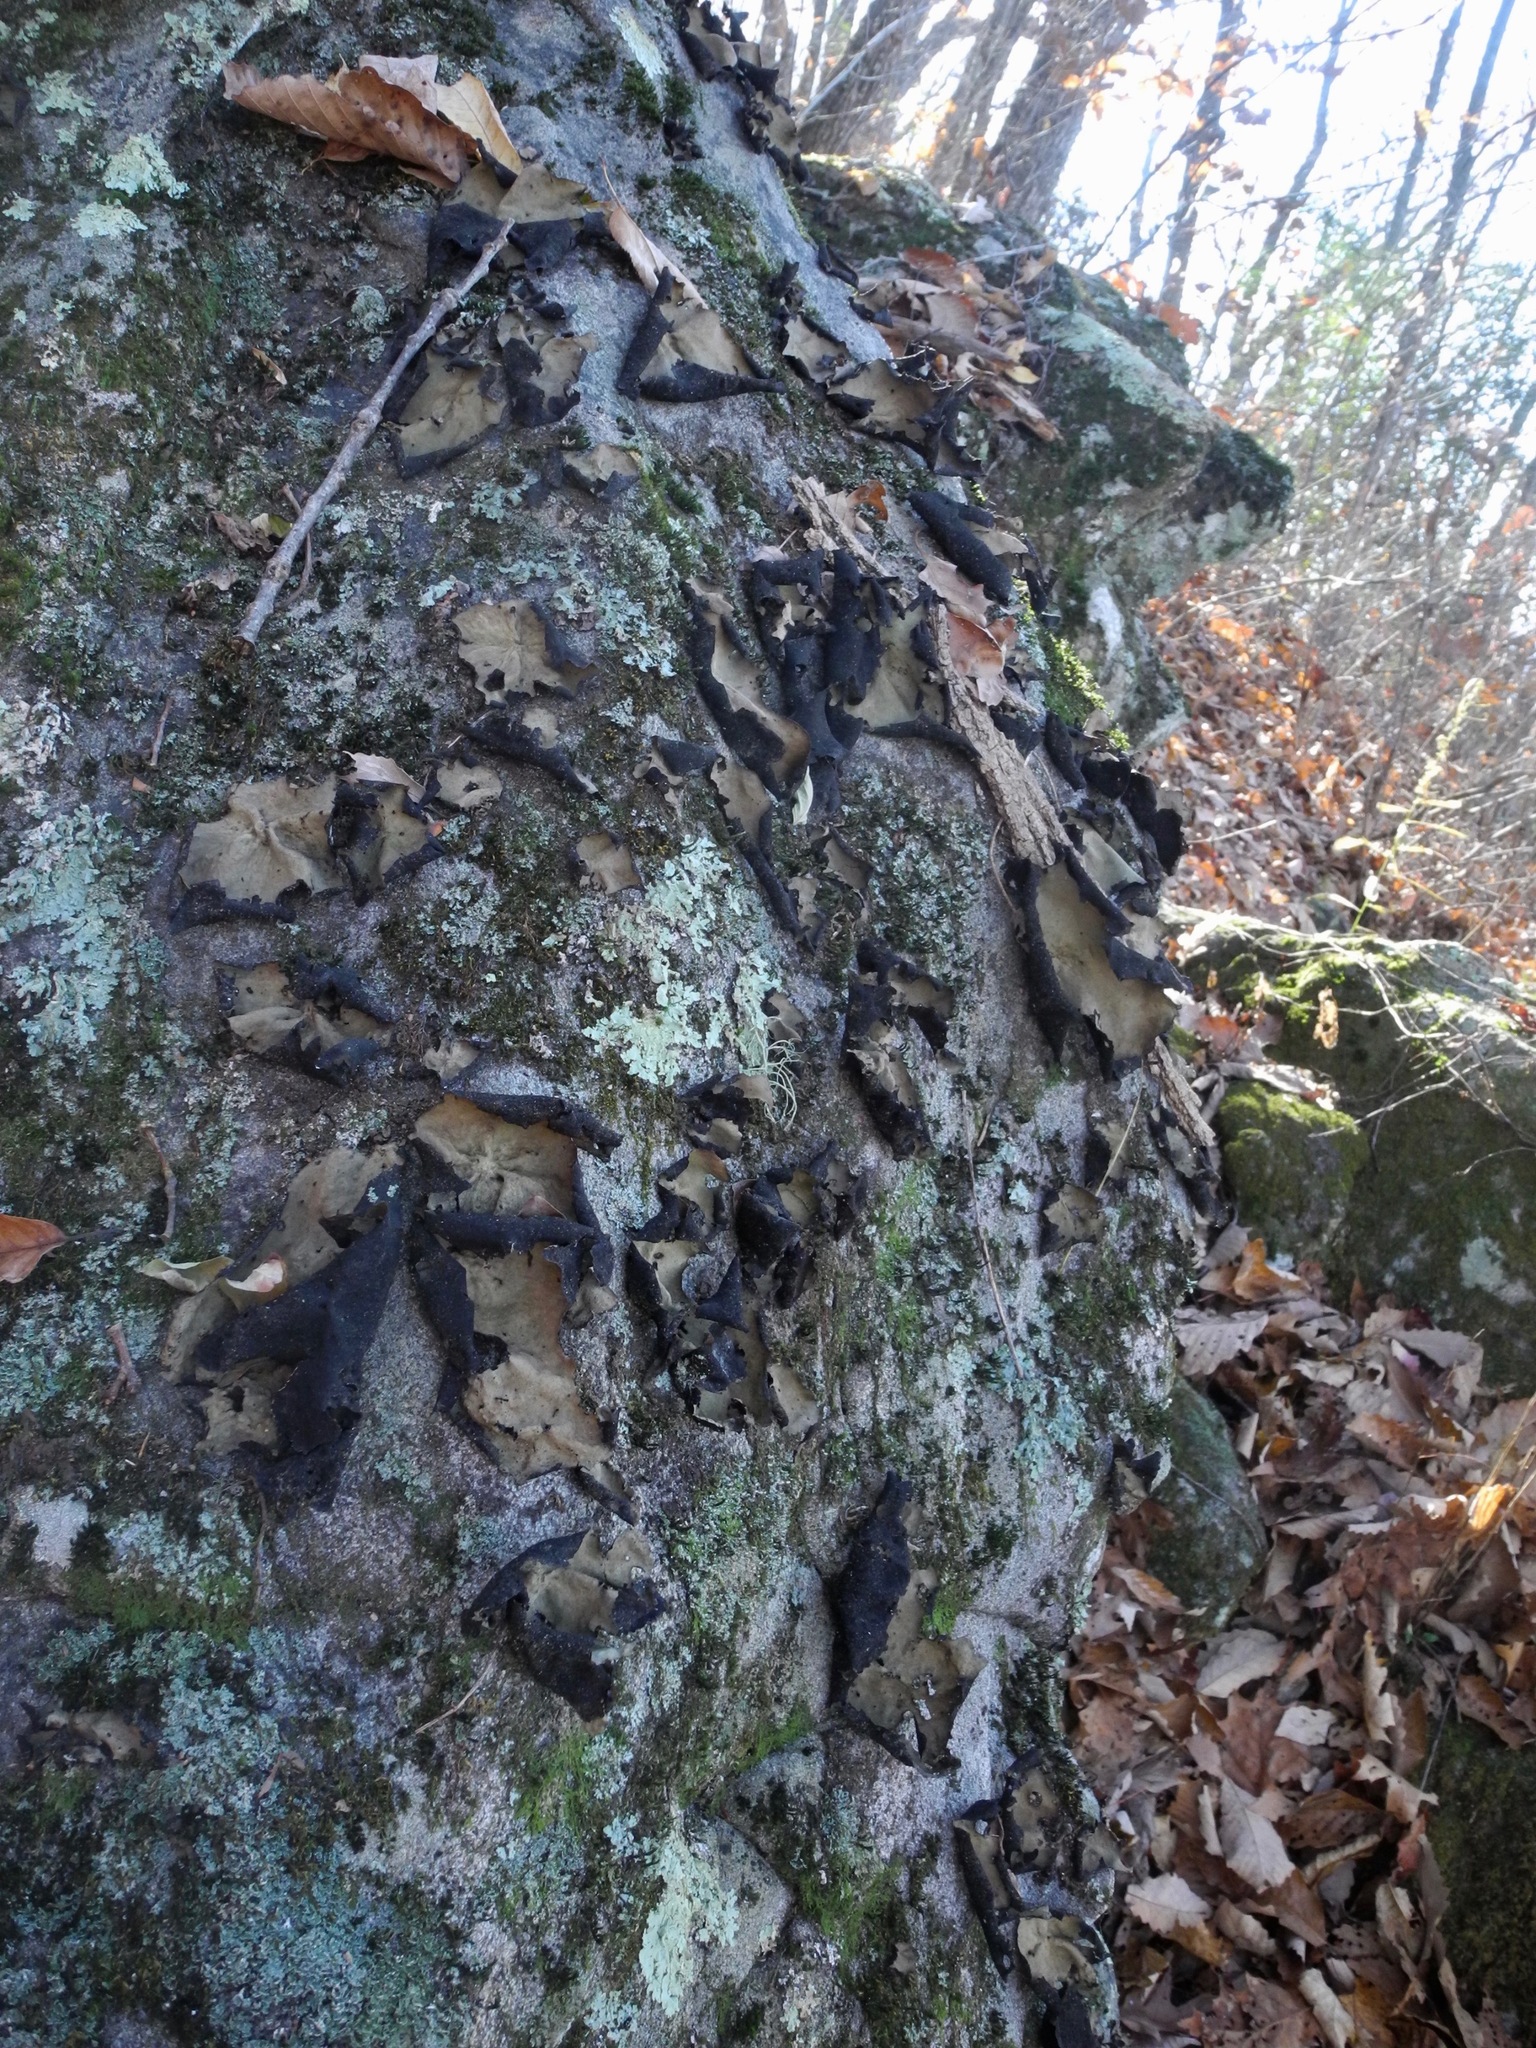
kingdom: Fungi
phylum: Ascomycota
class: Lecanoromycetes
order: Umbilicariales
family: Umbilicariaceae
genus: Umbilicaria
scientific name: Umbilicaria mammulata
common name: Smooth rock tripe
